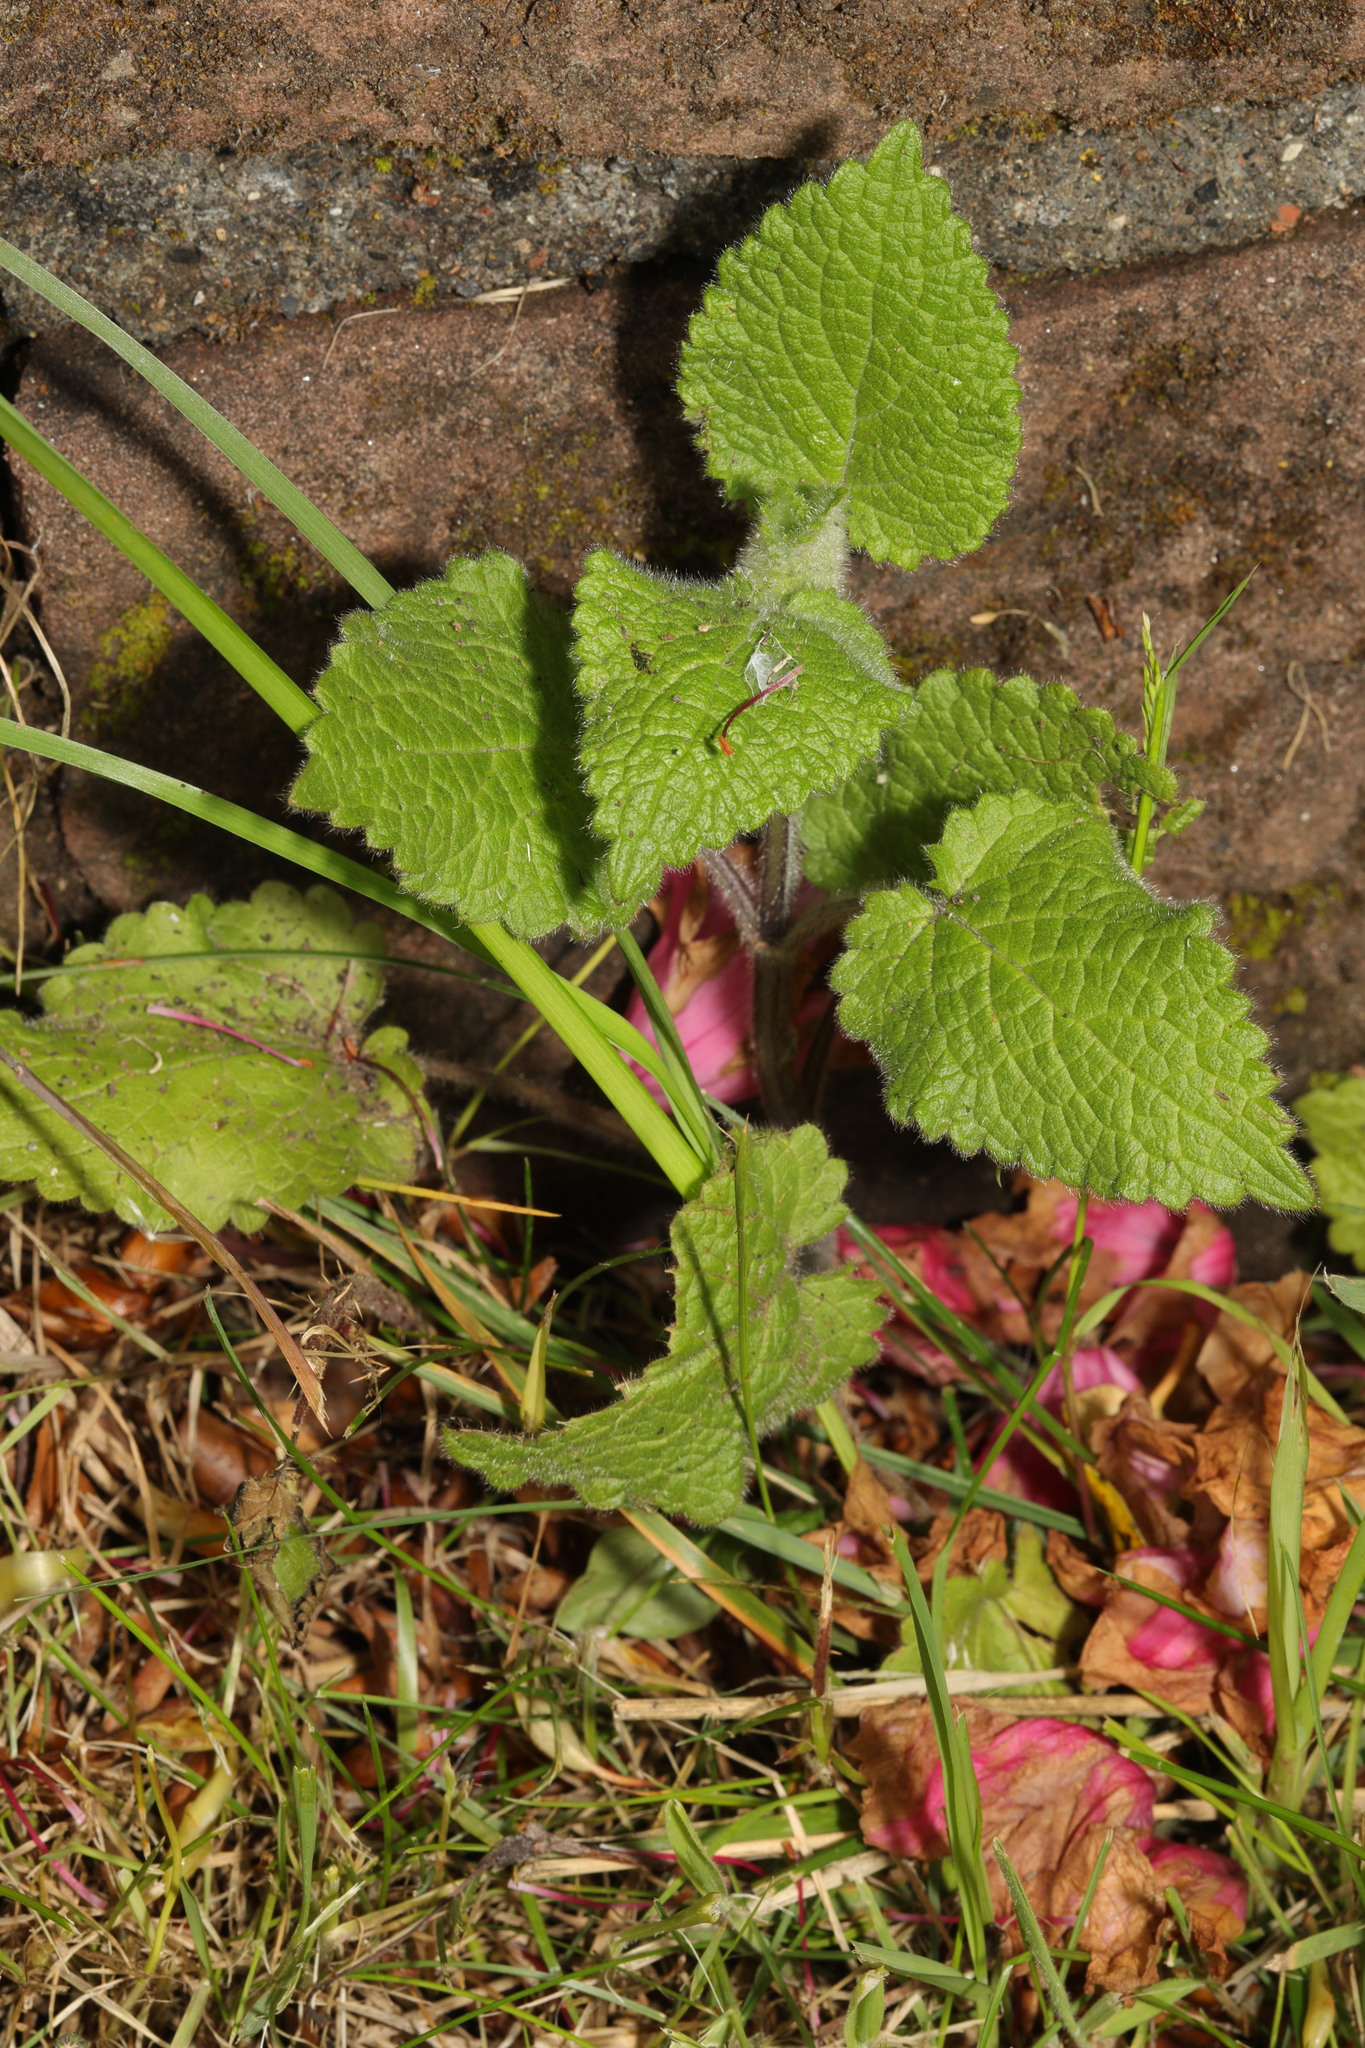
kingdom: Plantae
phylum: Tracheophyta
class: Magnoliopsida
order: Lamiales
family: Lamiaceae
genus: Stachys
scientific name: Stachys sylvatica
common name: Hedge woundwort
